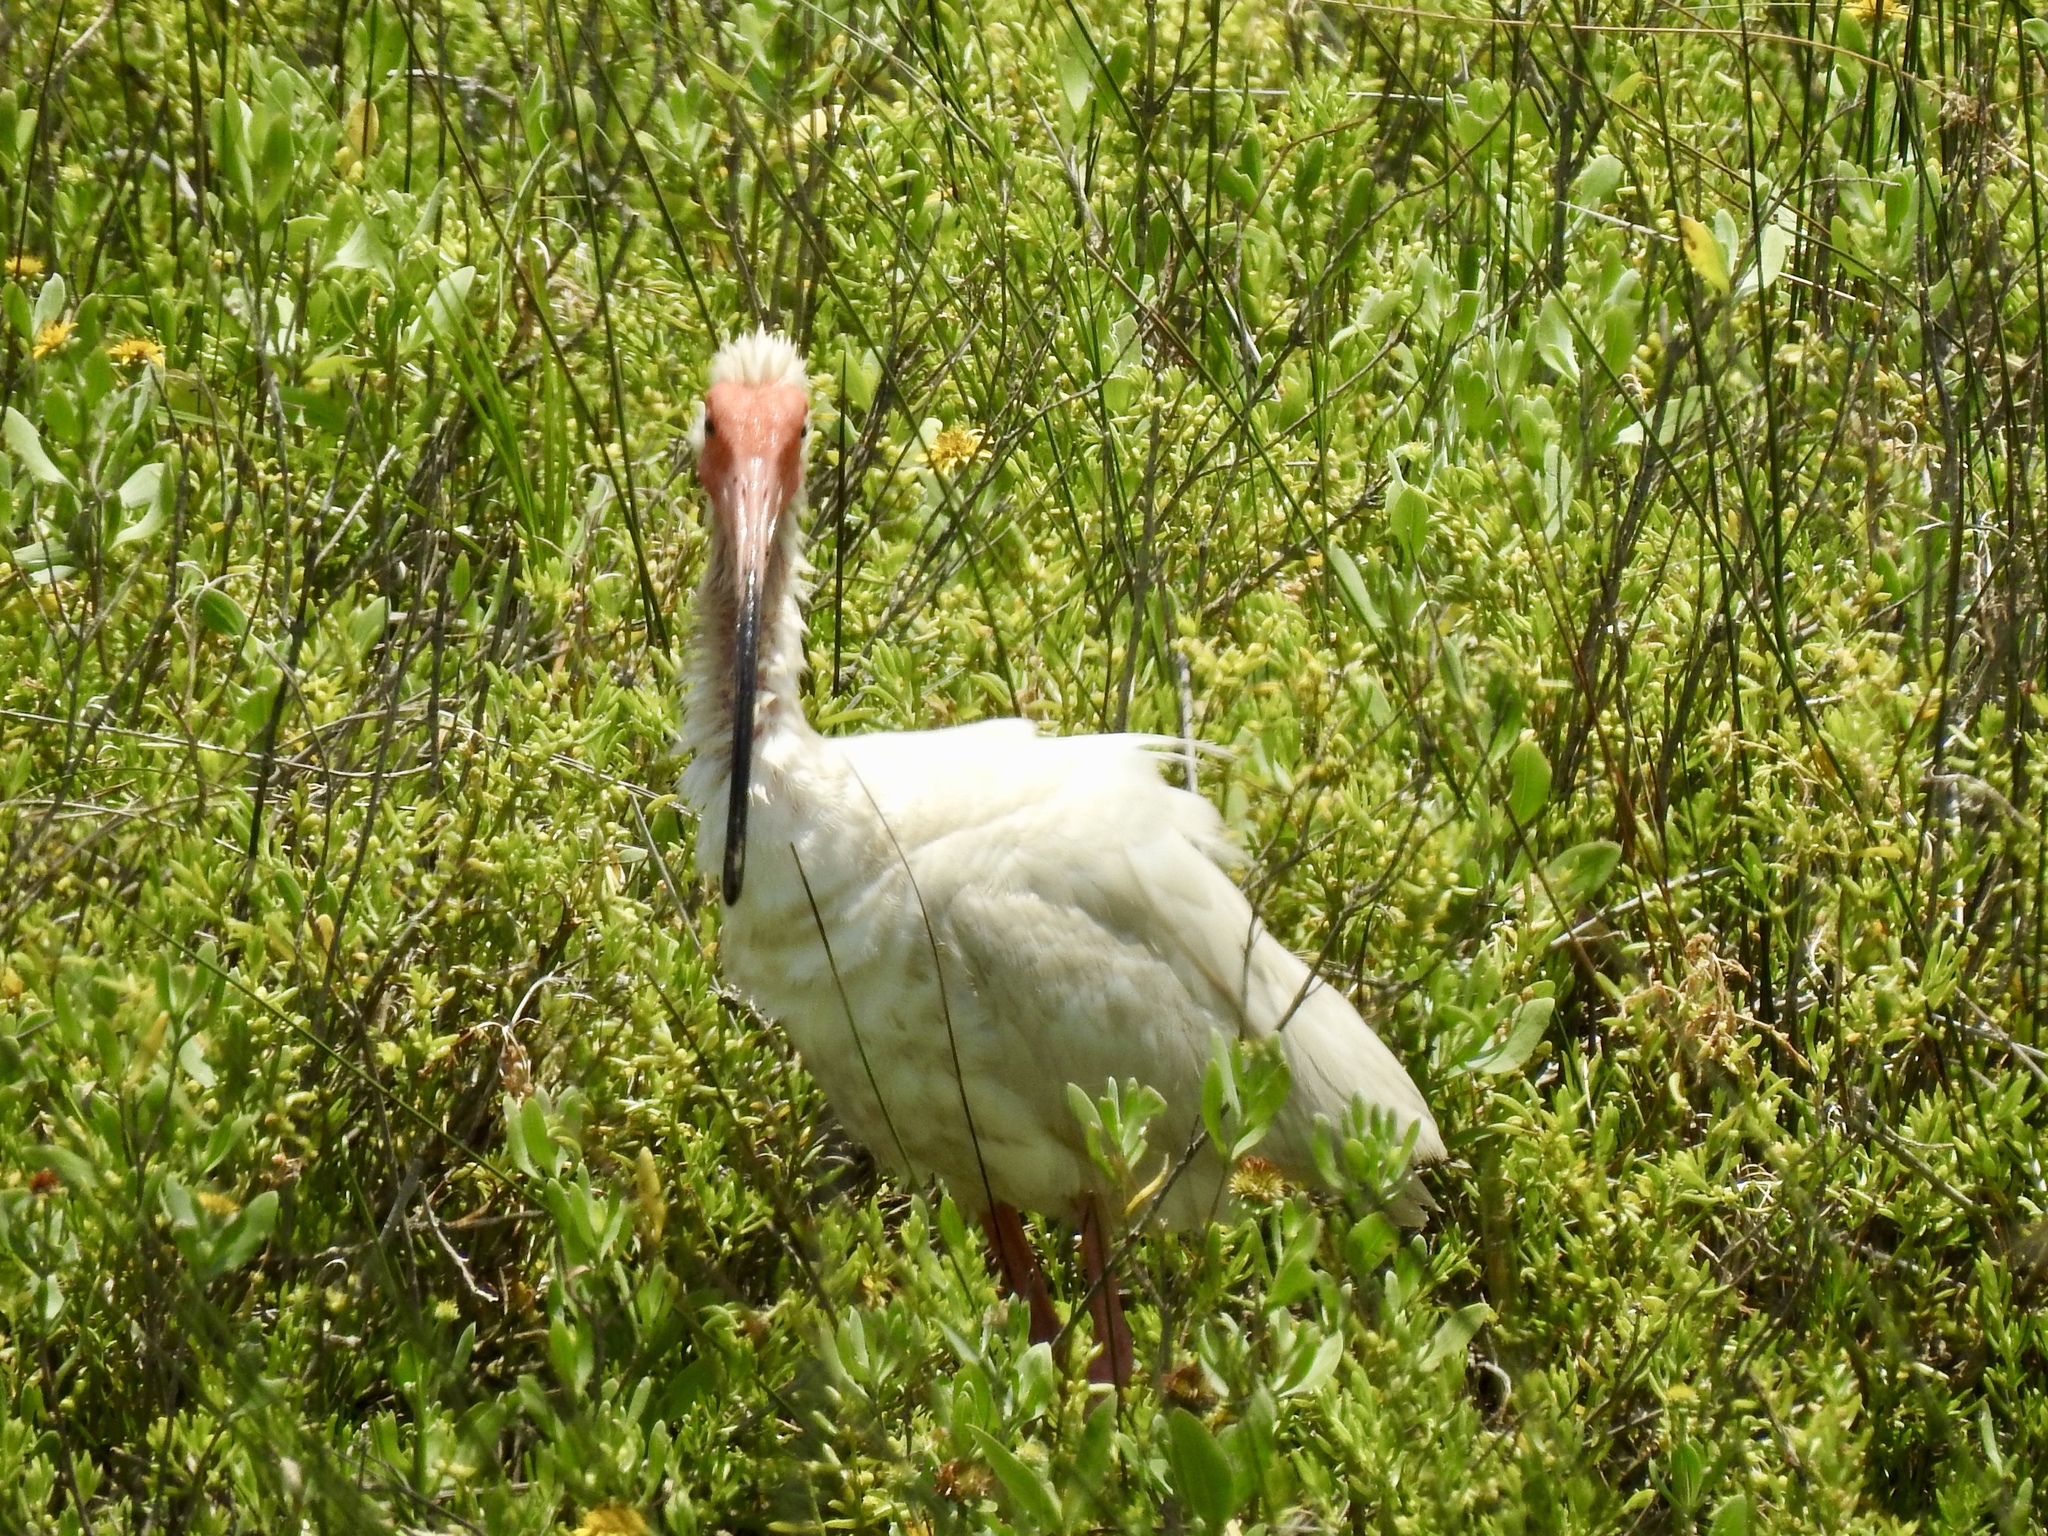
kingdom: Animalia
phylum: Chordata
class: Aves
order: Pelecaniformes
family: Threskiornithidae
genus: Eudocimus
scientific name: Eudocimus albus
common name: White ibis
